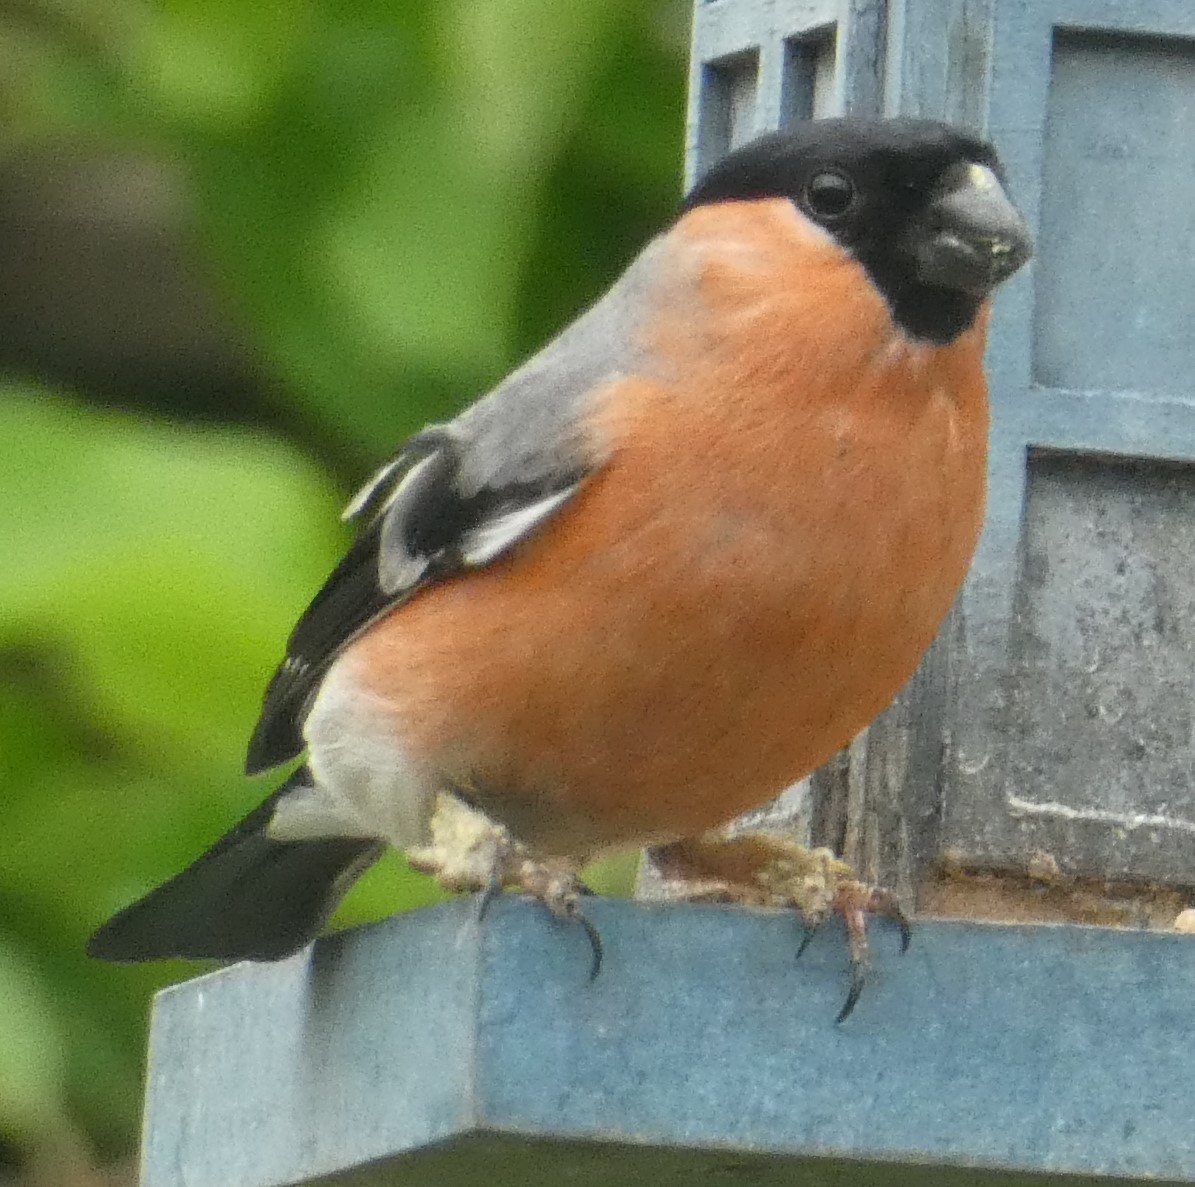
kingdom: Animalia
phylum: Chordata
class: Aves
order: Passeriformes
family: Fringillidae
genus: Pyrrhula
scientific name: Pyrrhula pyrrhula
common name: Eurasian bullfinch
